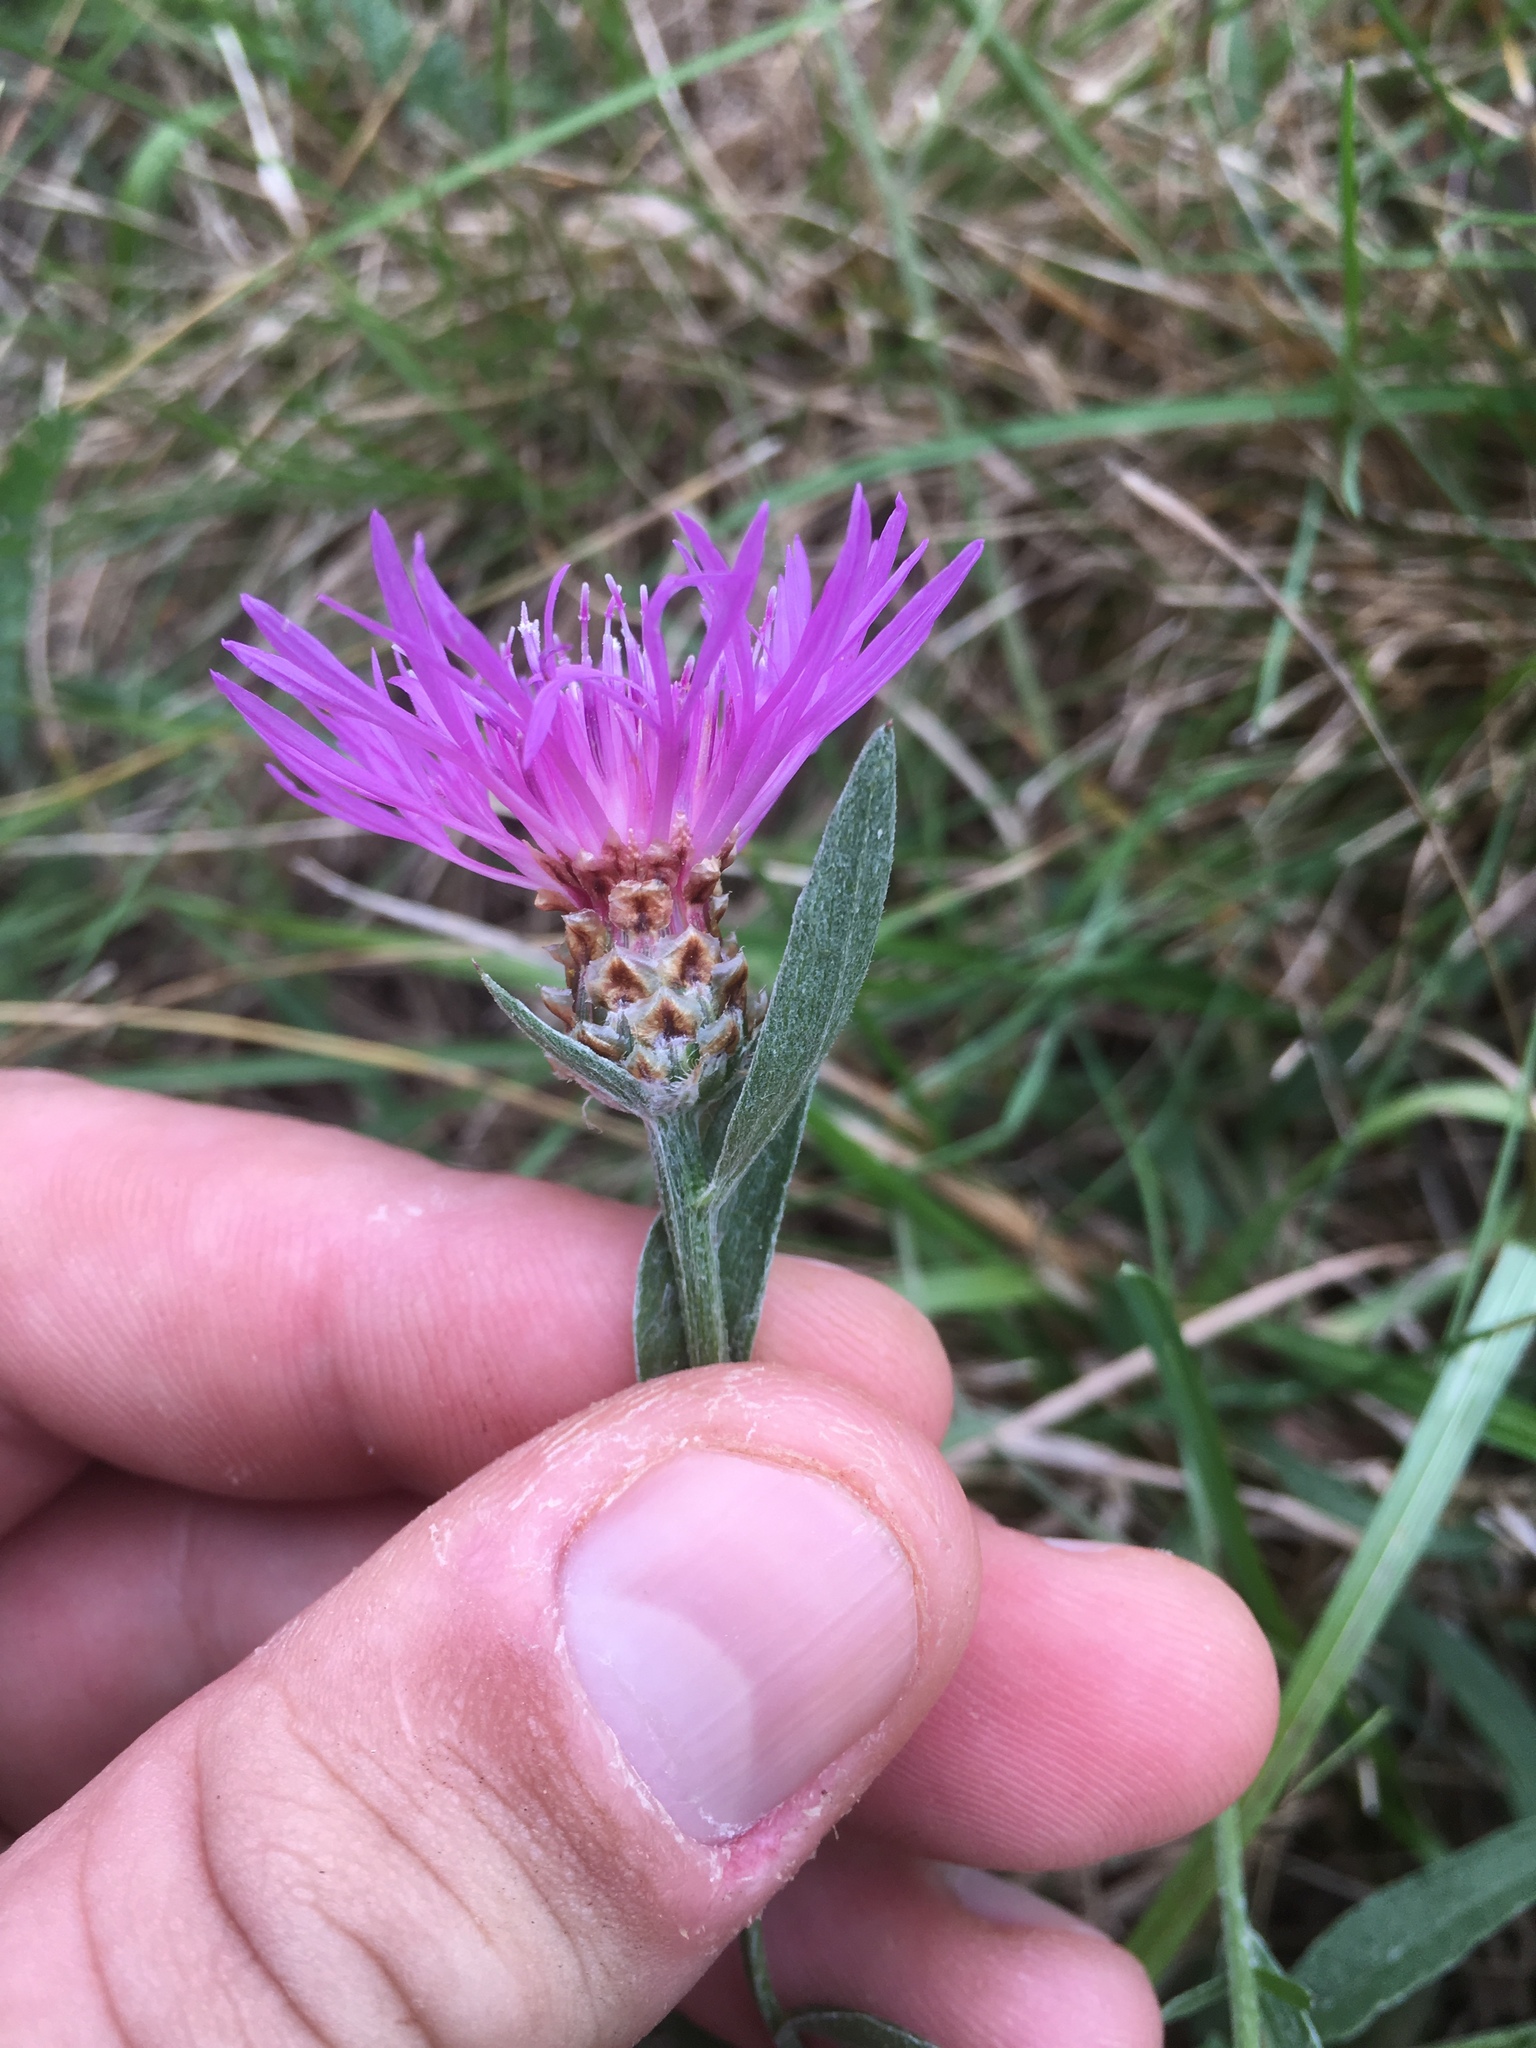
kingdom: Plantae
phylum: Tracheophyta
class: Magnoliopsida
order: Asterales
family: Asteraceae
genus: Centaurea
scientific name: Centaurea jacea
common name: Brown knapweed
